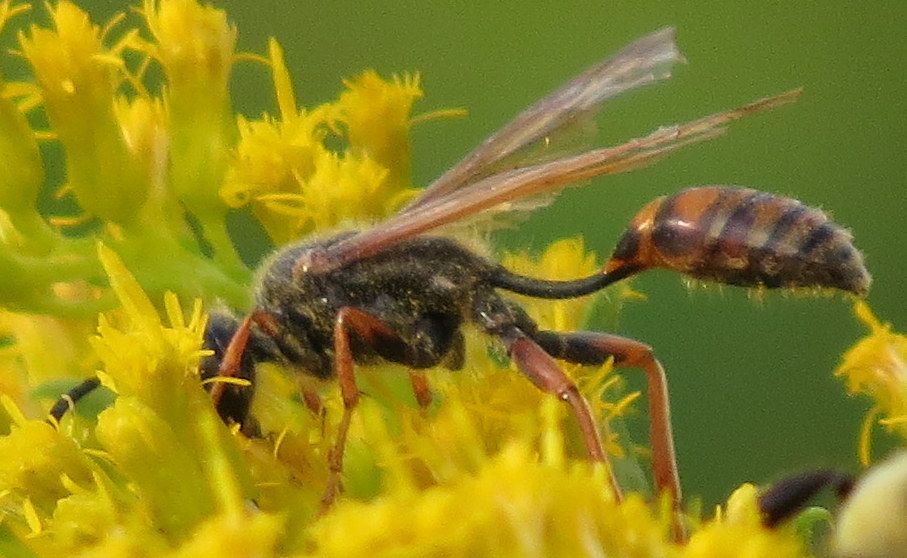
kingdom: Animalia
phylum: Arthropoda
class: Insecta
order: Hymenoptera
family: Sphecidae
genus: Isodontia
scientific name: Isodontia elegans
